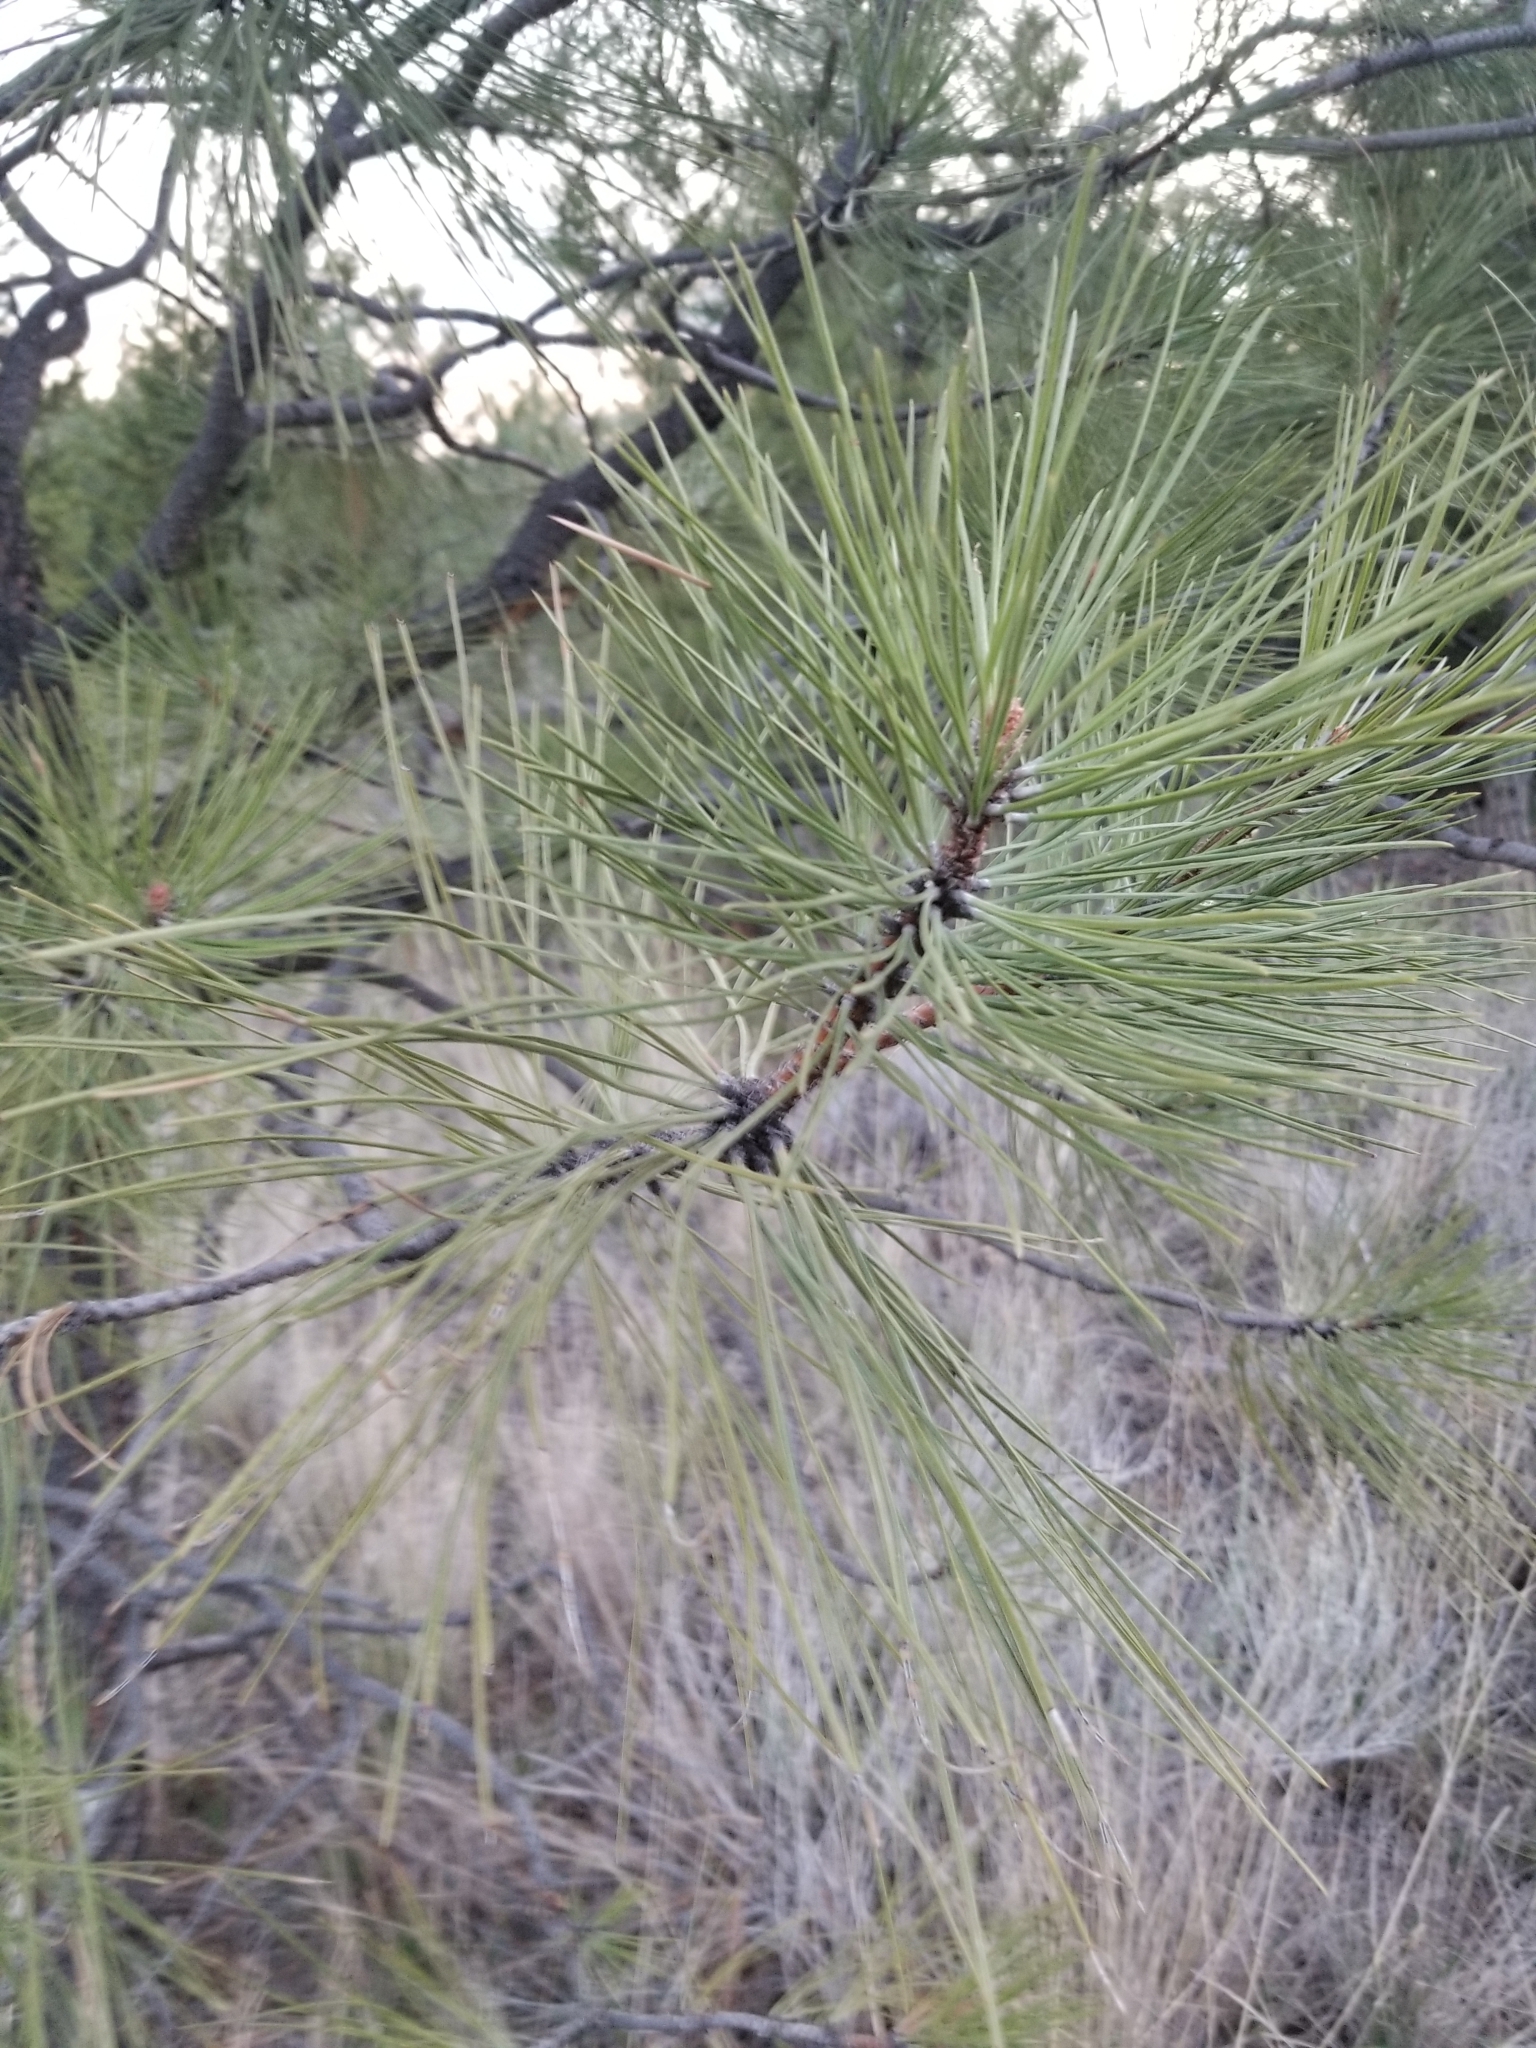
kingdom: Plantae
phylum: Tracheophyta
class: Pinopsida
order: Pinales
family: Pinaceae
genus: Pinus
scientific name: Pinus ponderosa
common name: Western yellow-pine
